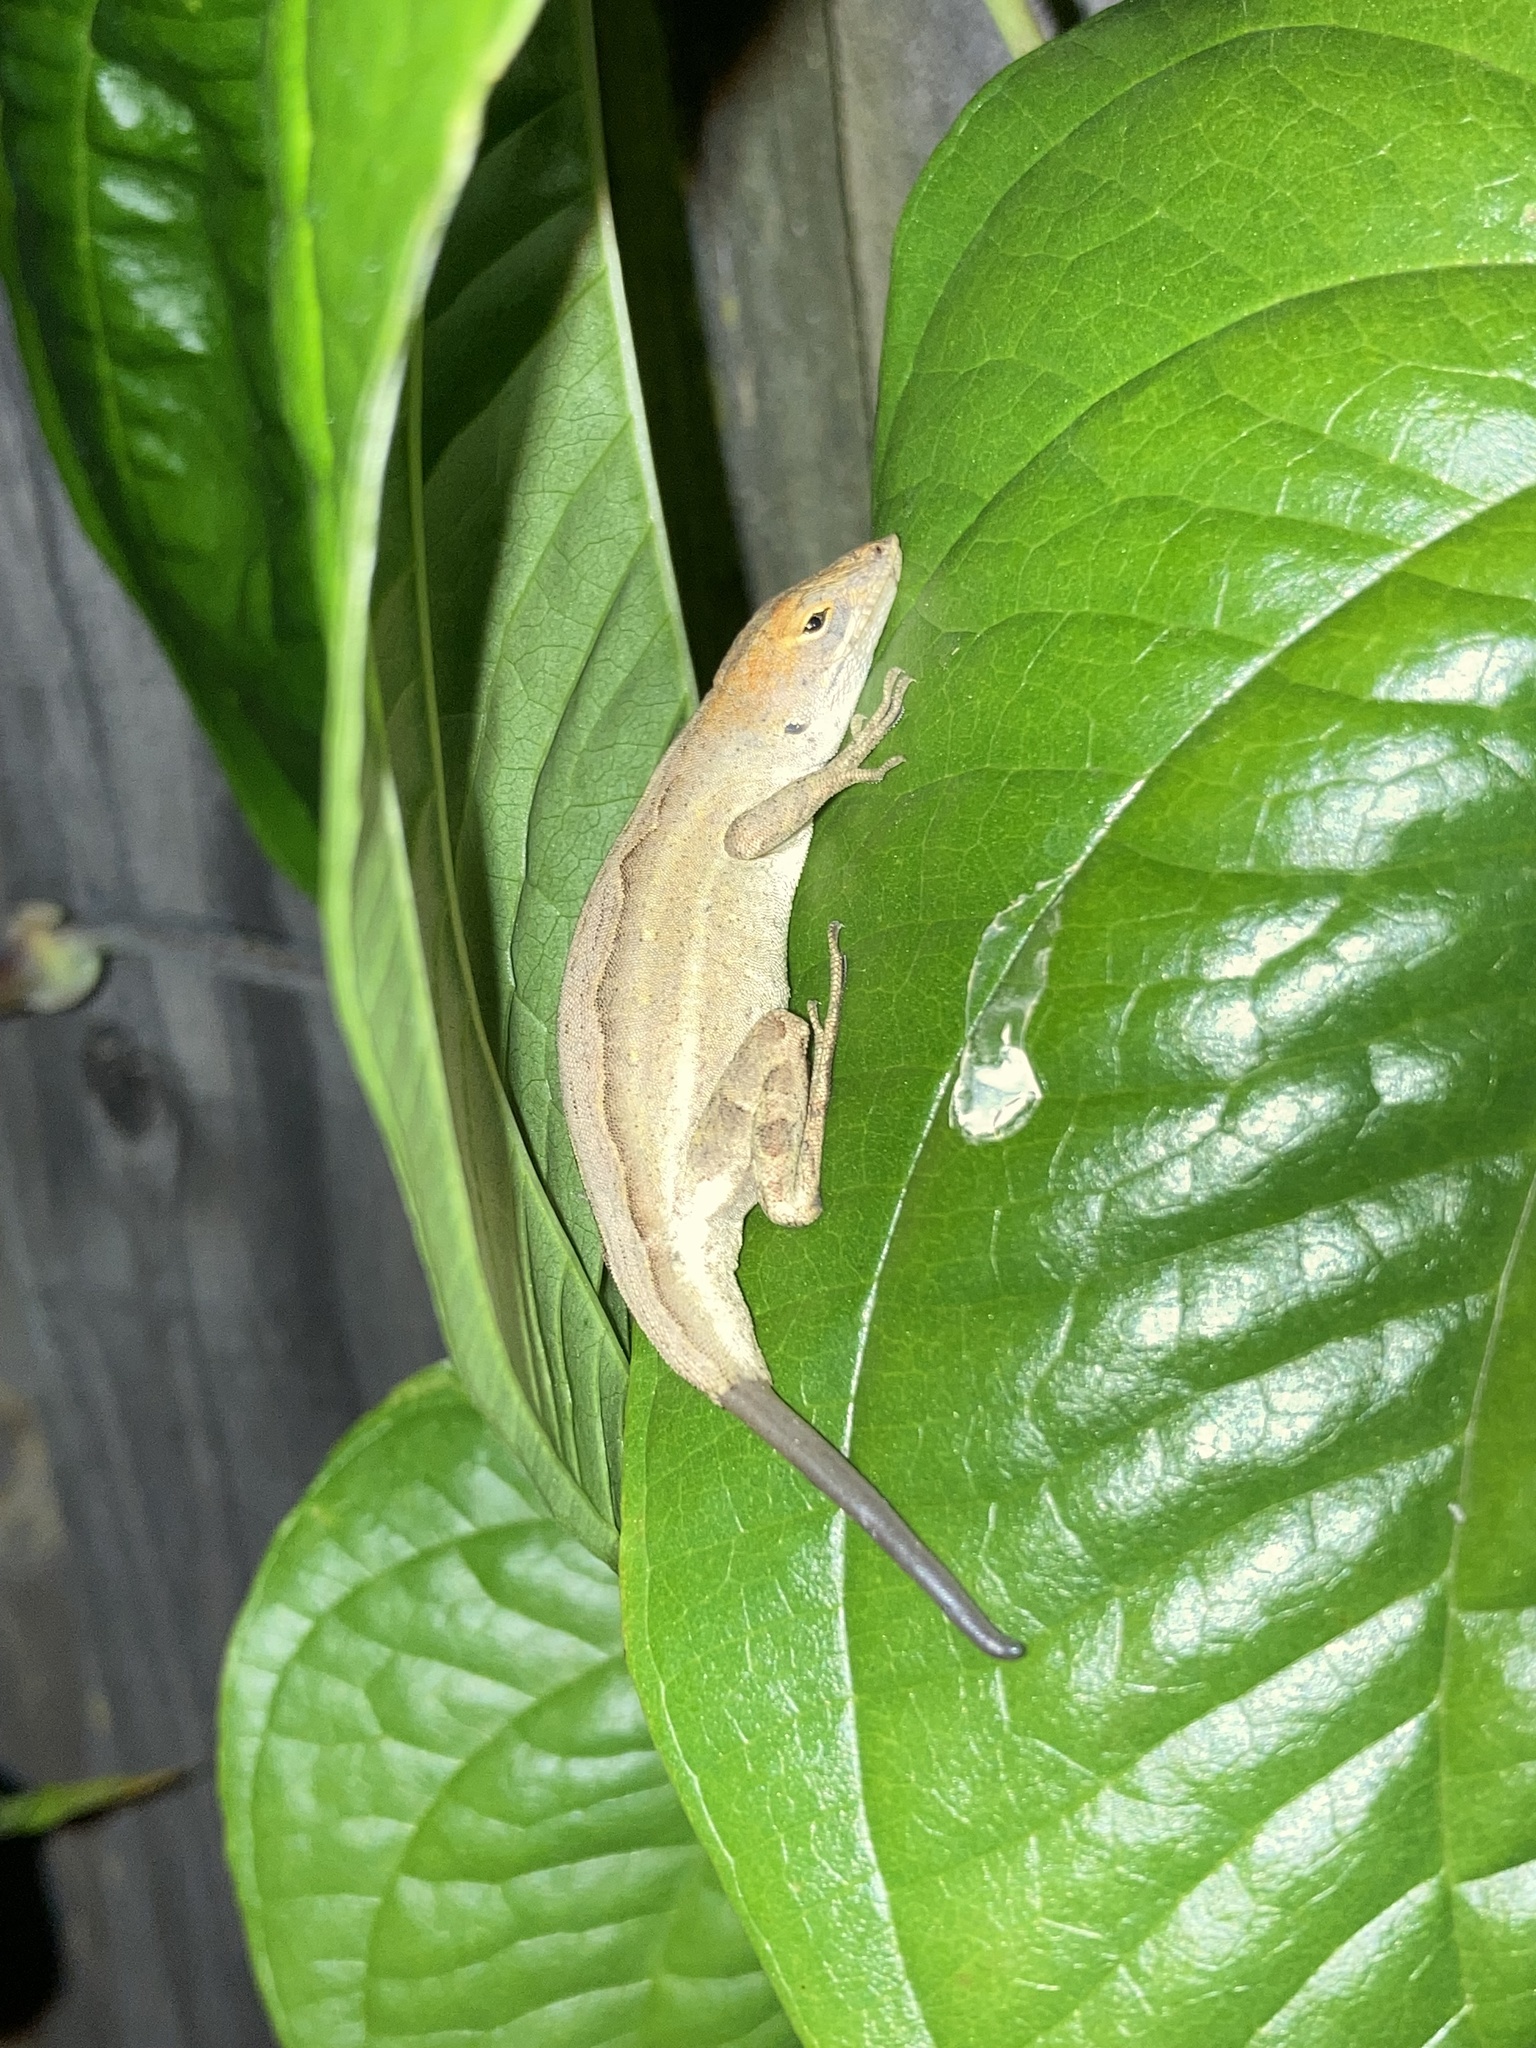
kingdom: Animalia
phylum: Chordata
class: Squamata
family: Dactyloidae
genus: Anolis
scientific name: Anolis sagrei
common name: Brown anole
